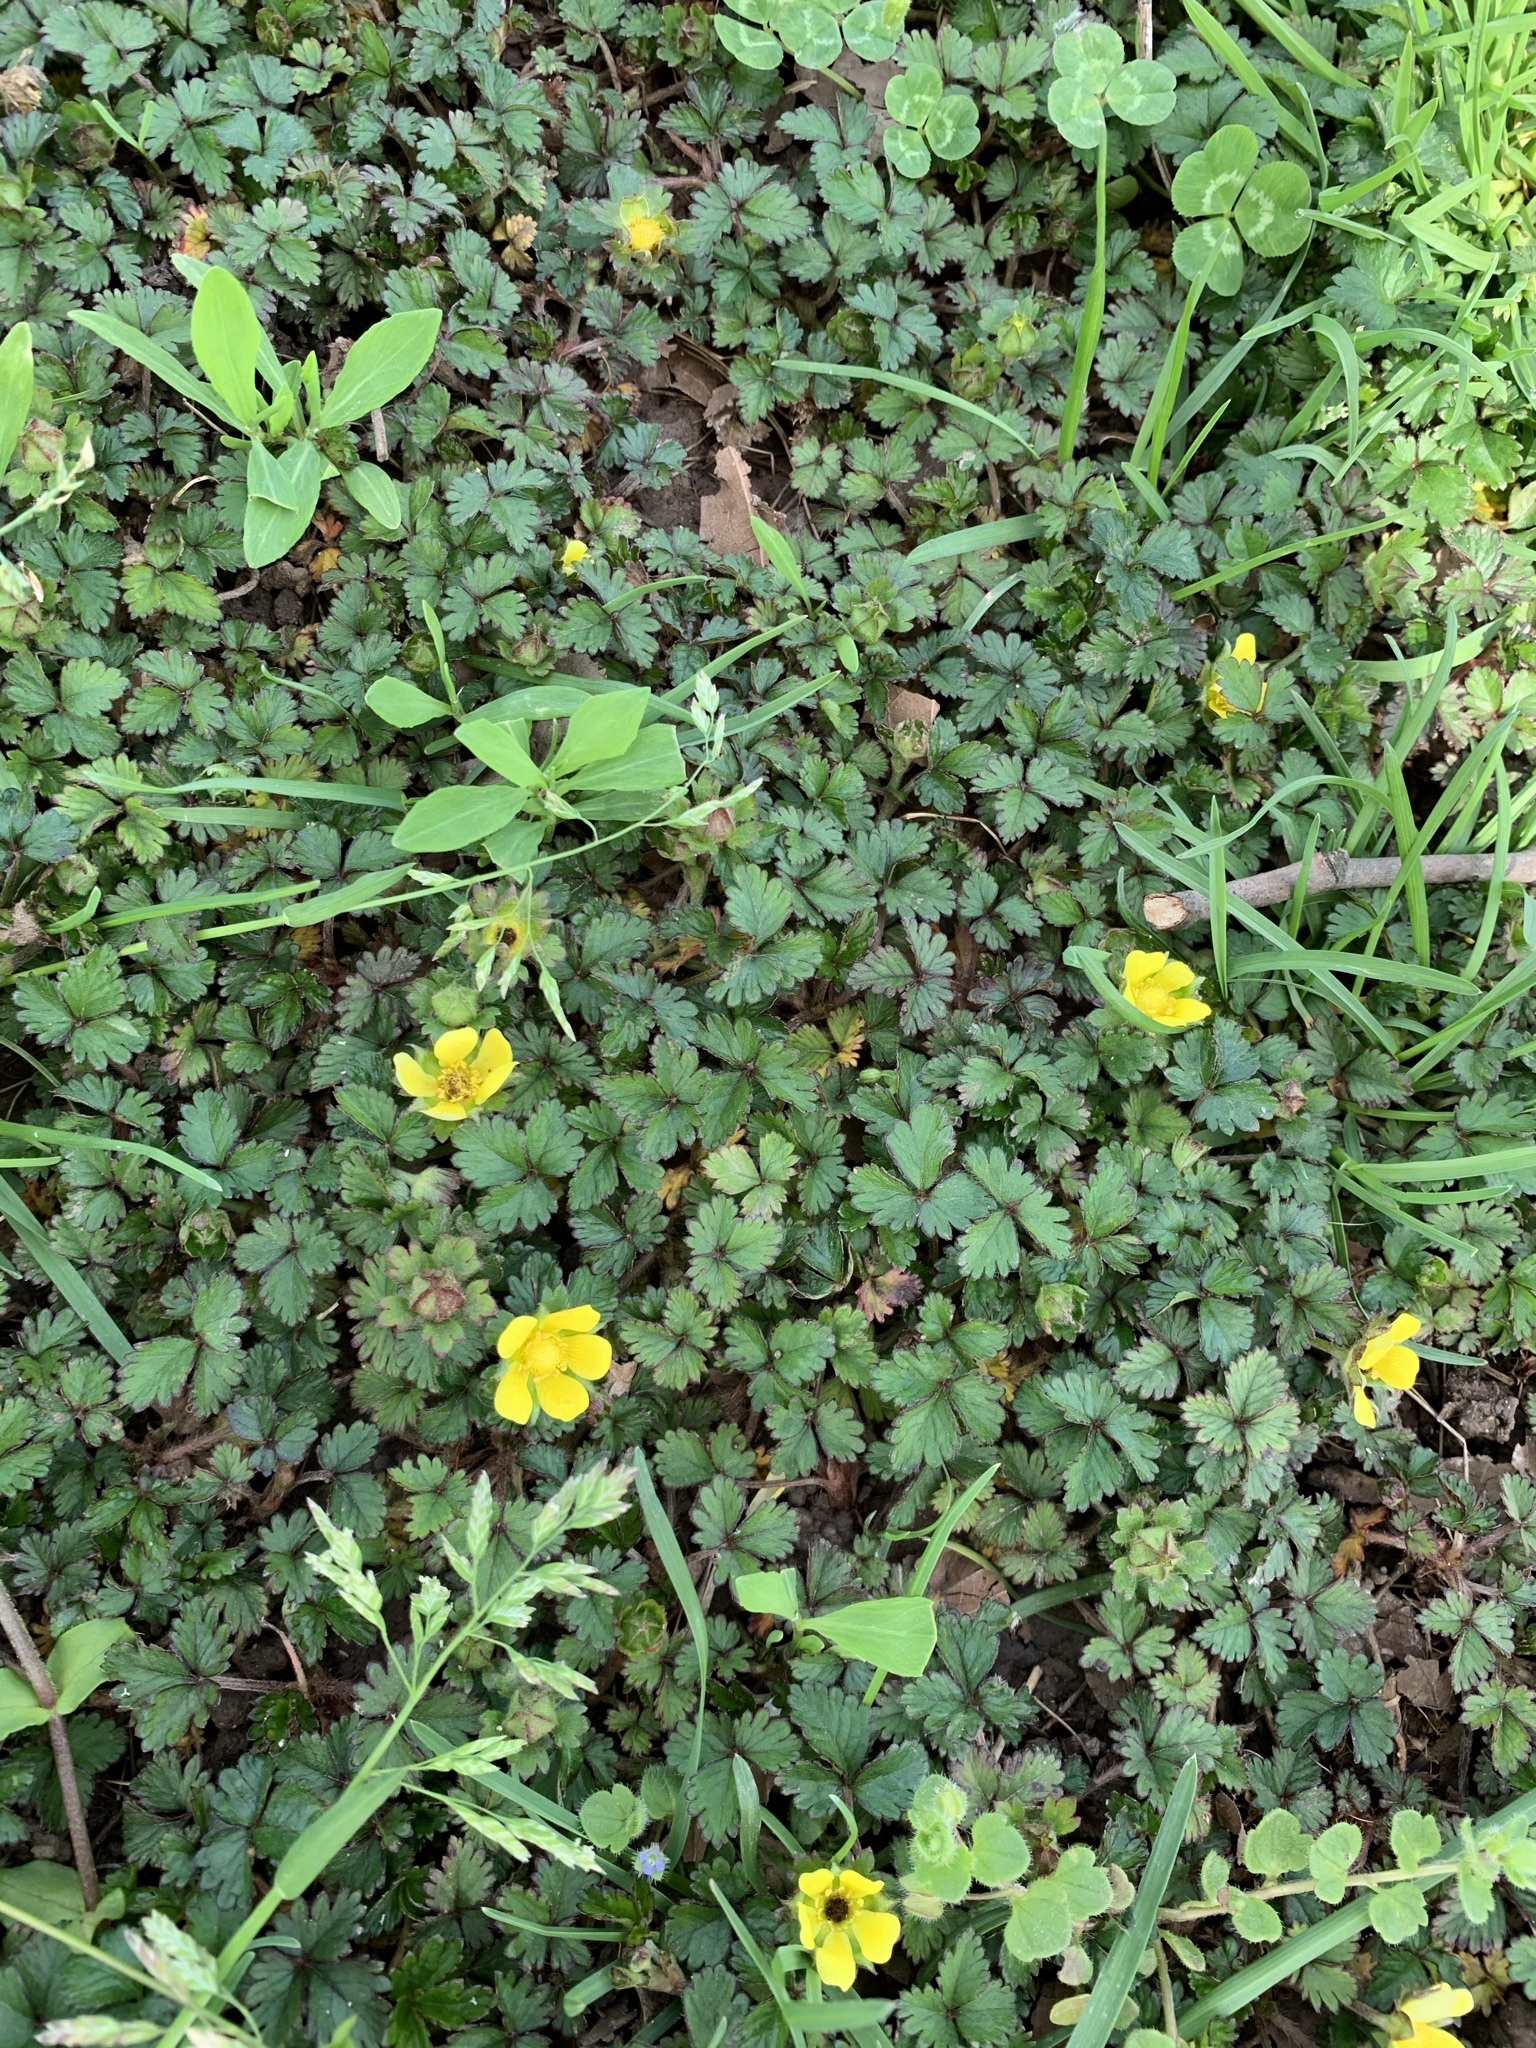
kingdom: Plantae
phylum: Tracheophyta
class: Magnoliopsida
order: Rosales
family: Rosaceae
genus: Potentilla
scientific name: Potentilla indica
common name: Yellow-flowered strawberry
